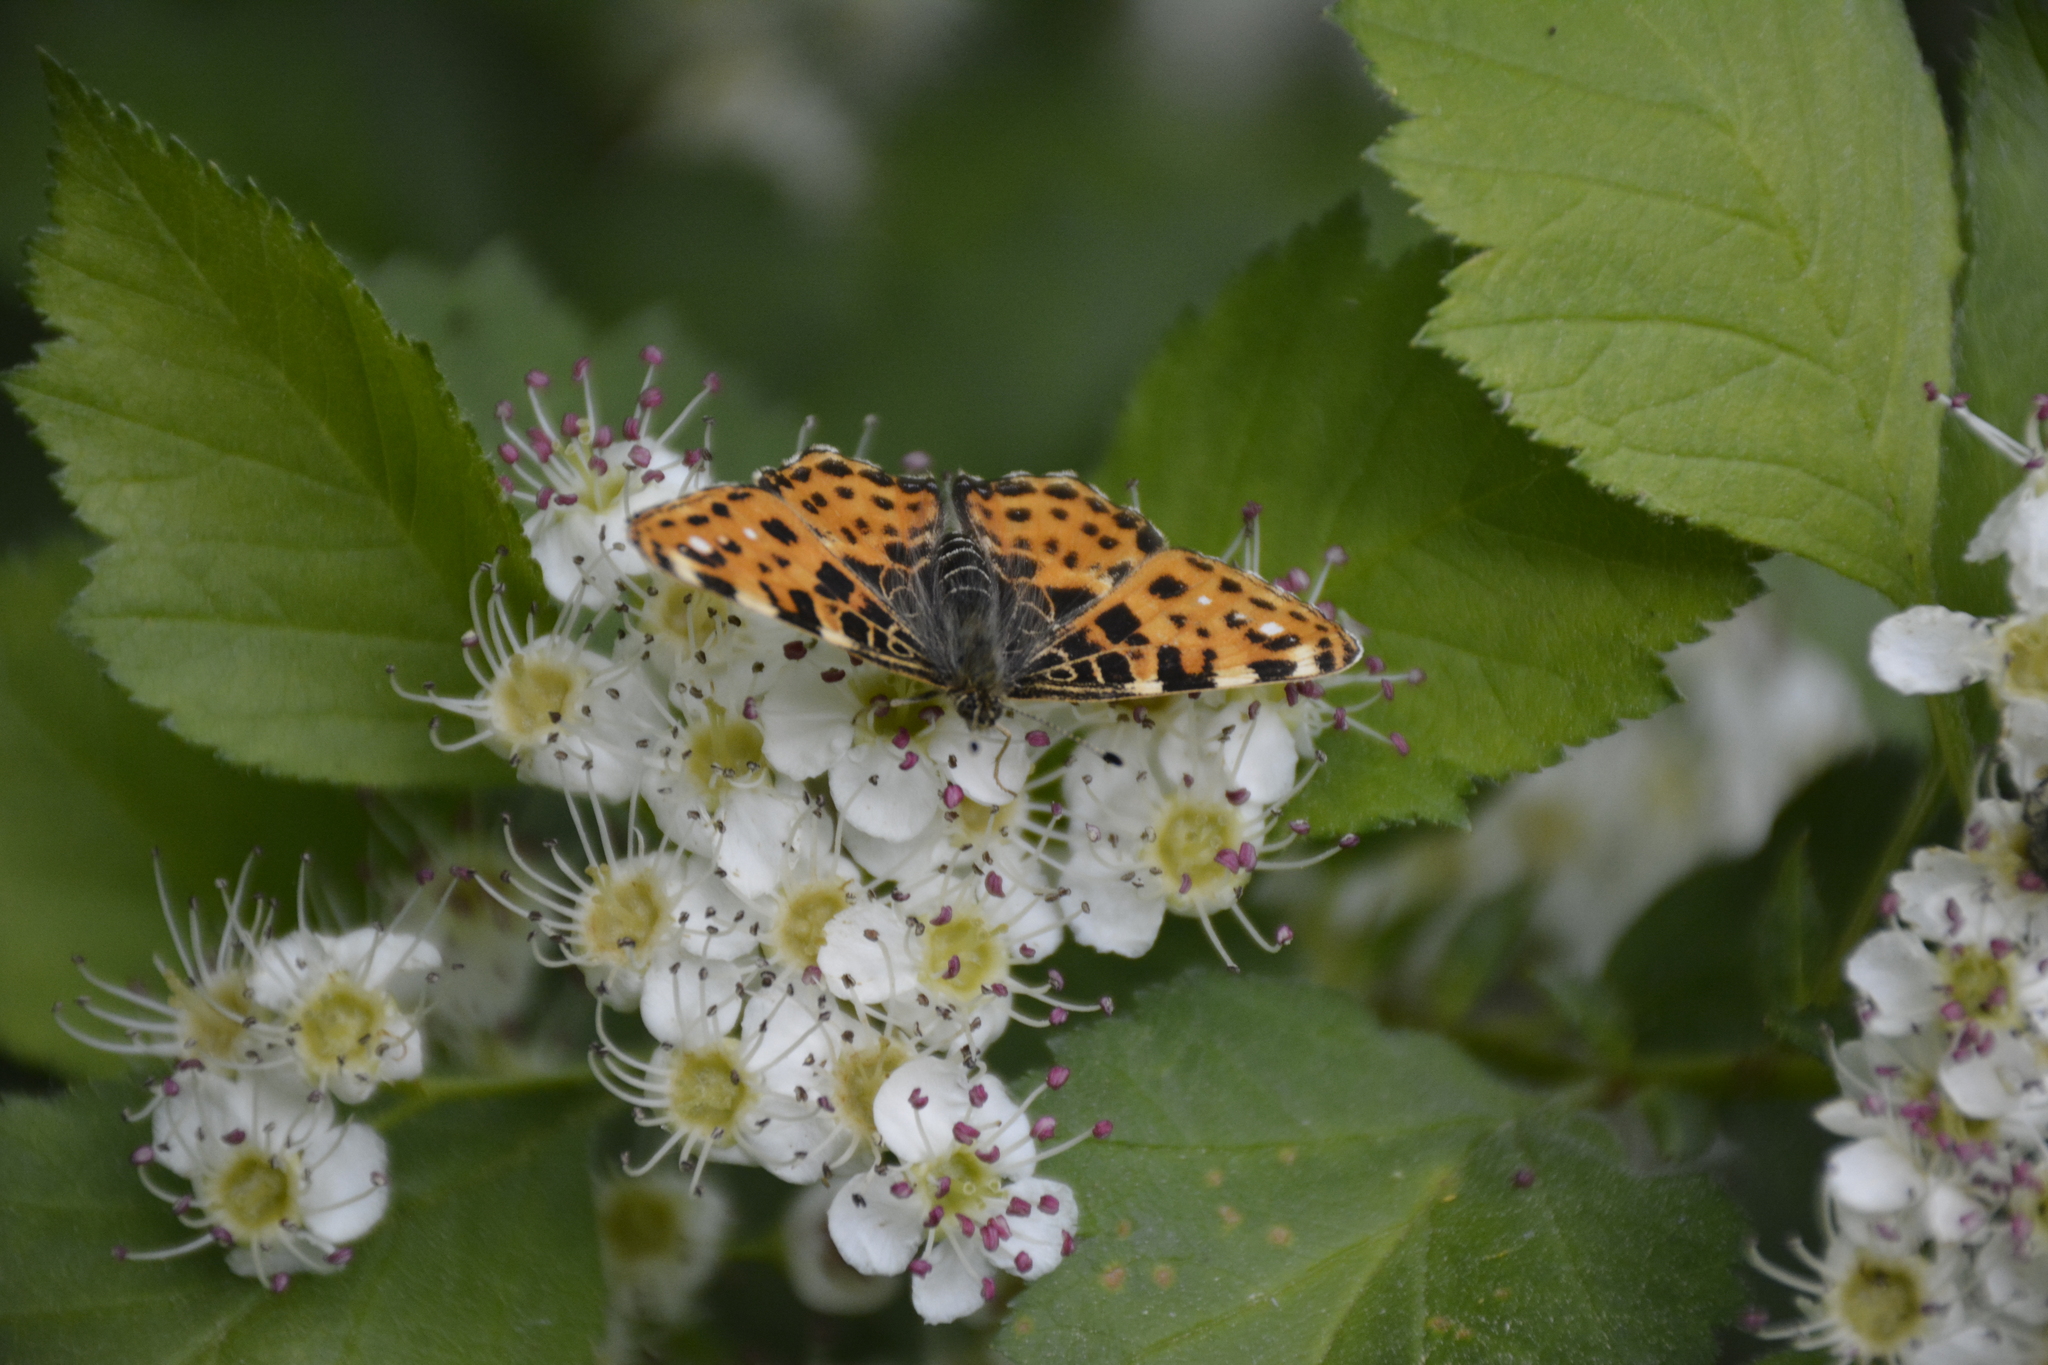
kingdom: Animalia
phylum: Arthropoda
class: Insecta
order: Lepidoptera
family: Nymphalidae
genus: Araschnia
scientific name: Araschnia levana
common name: Map butterfly
